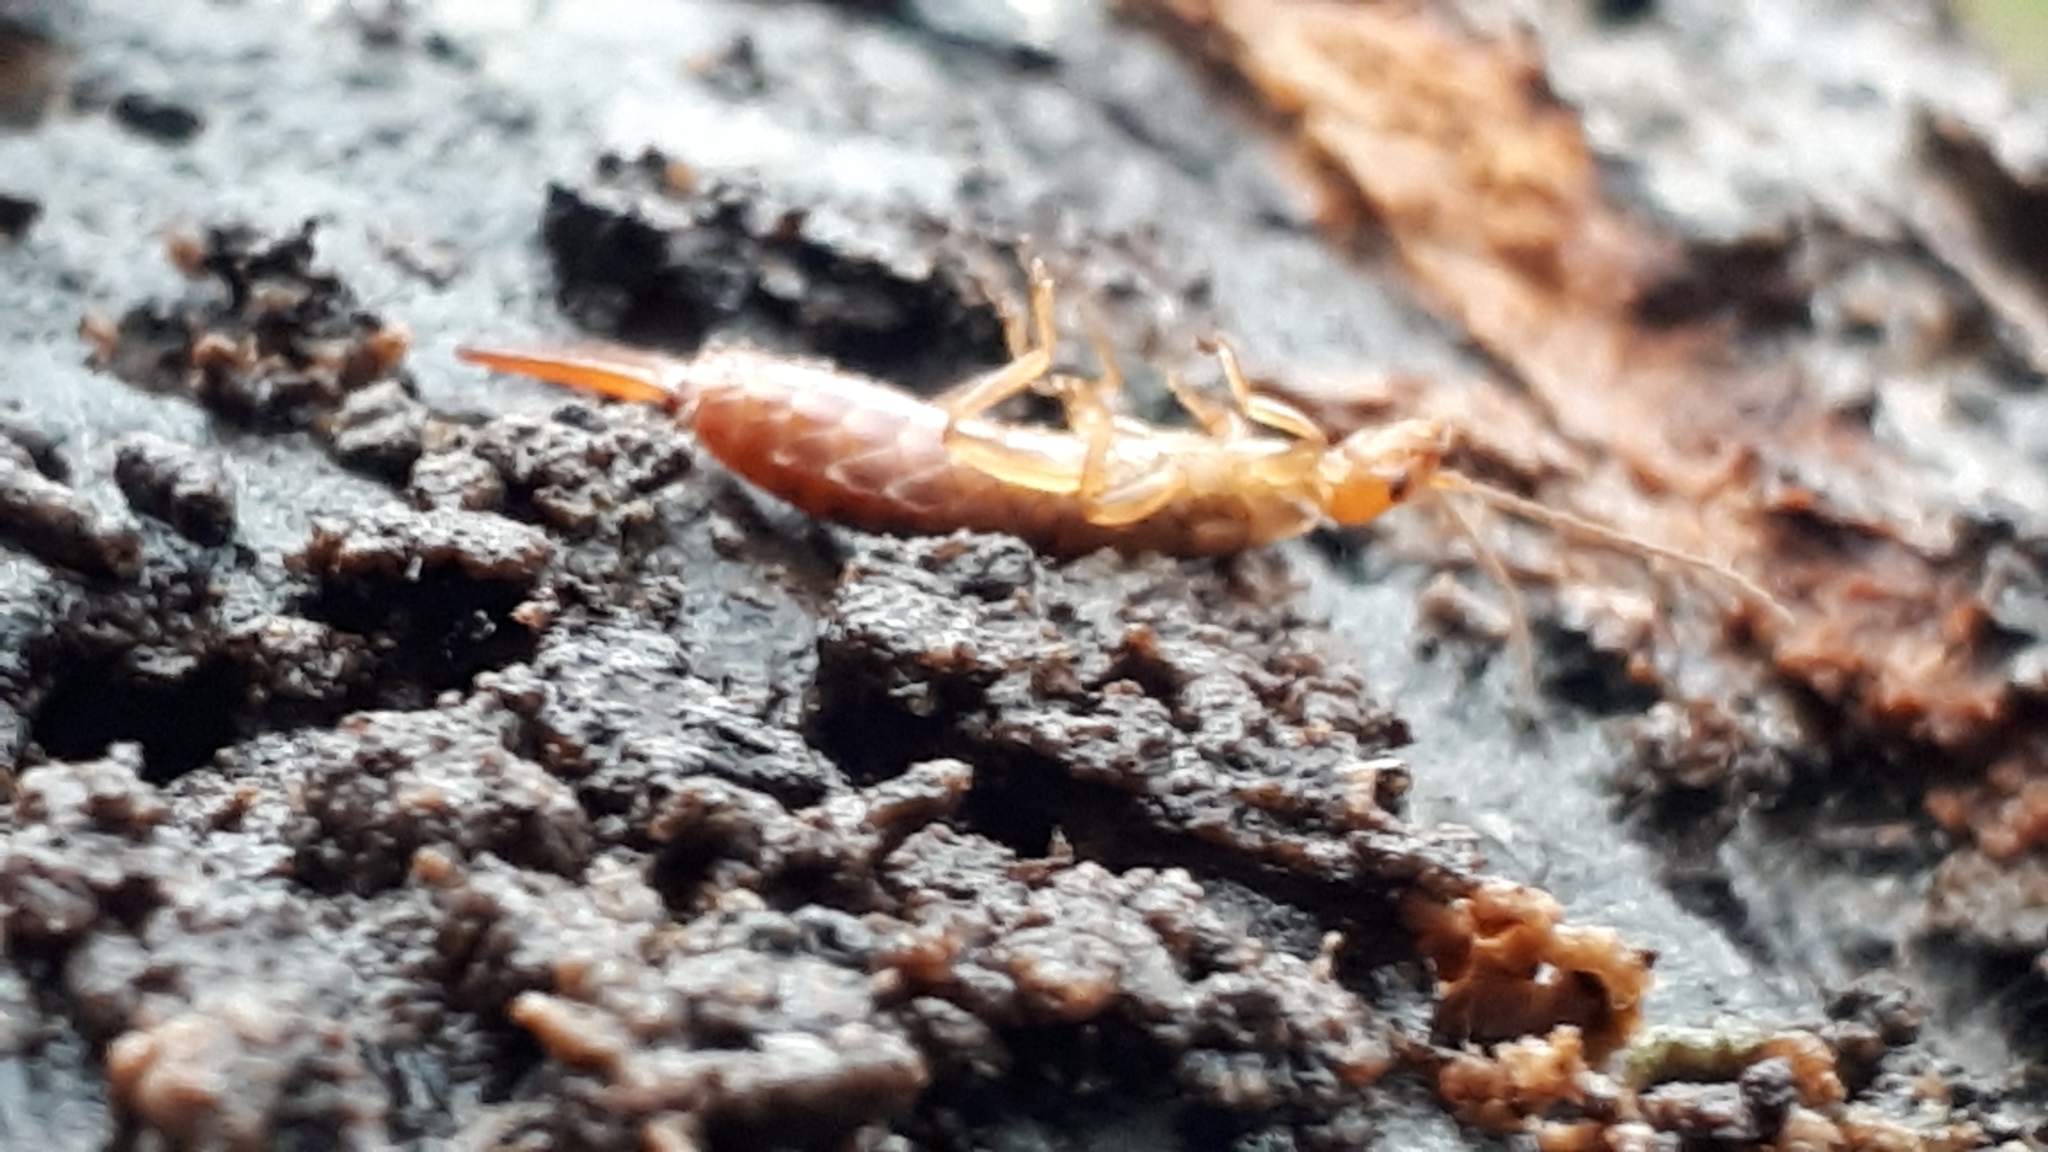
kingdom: Animalia
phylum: Arthropoda
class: Insecta
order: Dermaptera
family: Forficulidae
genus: Chelidurella
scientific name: Chelidurella acanthopygia
